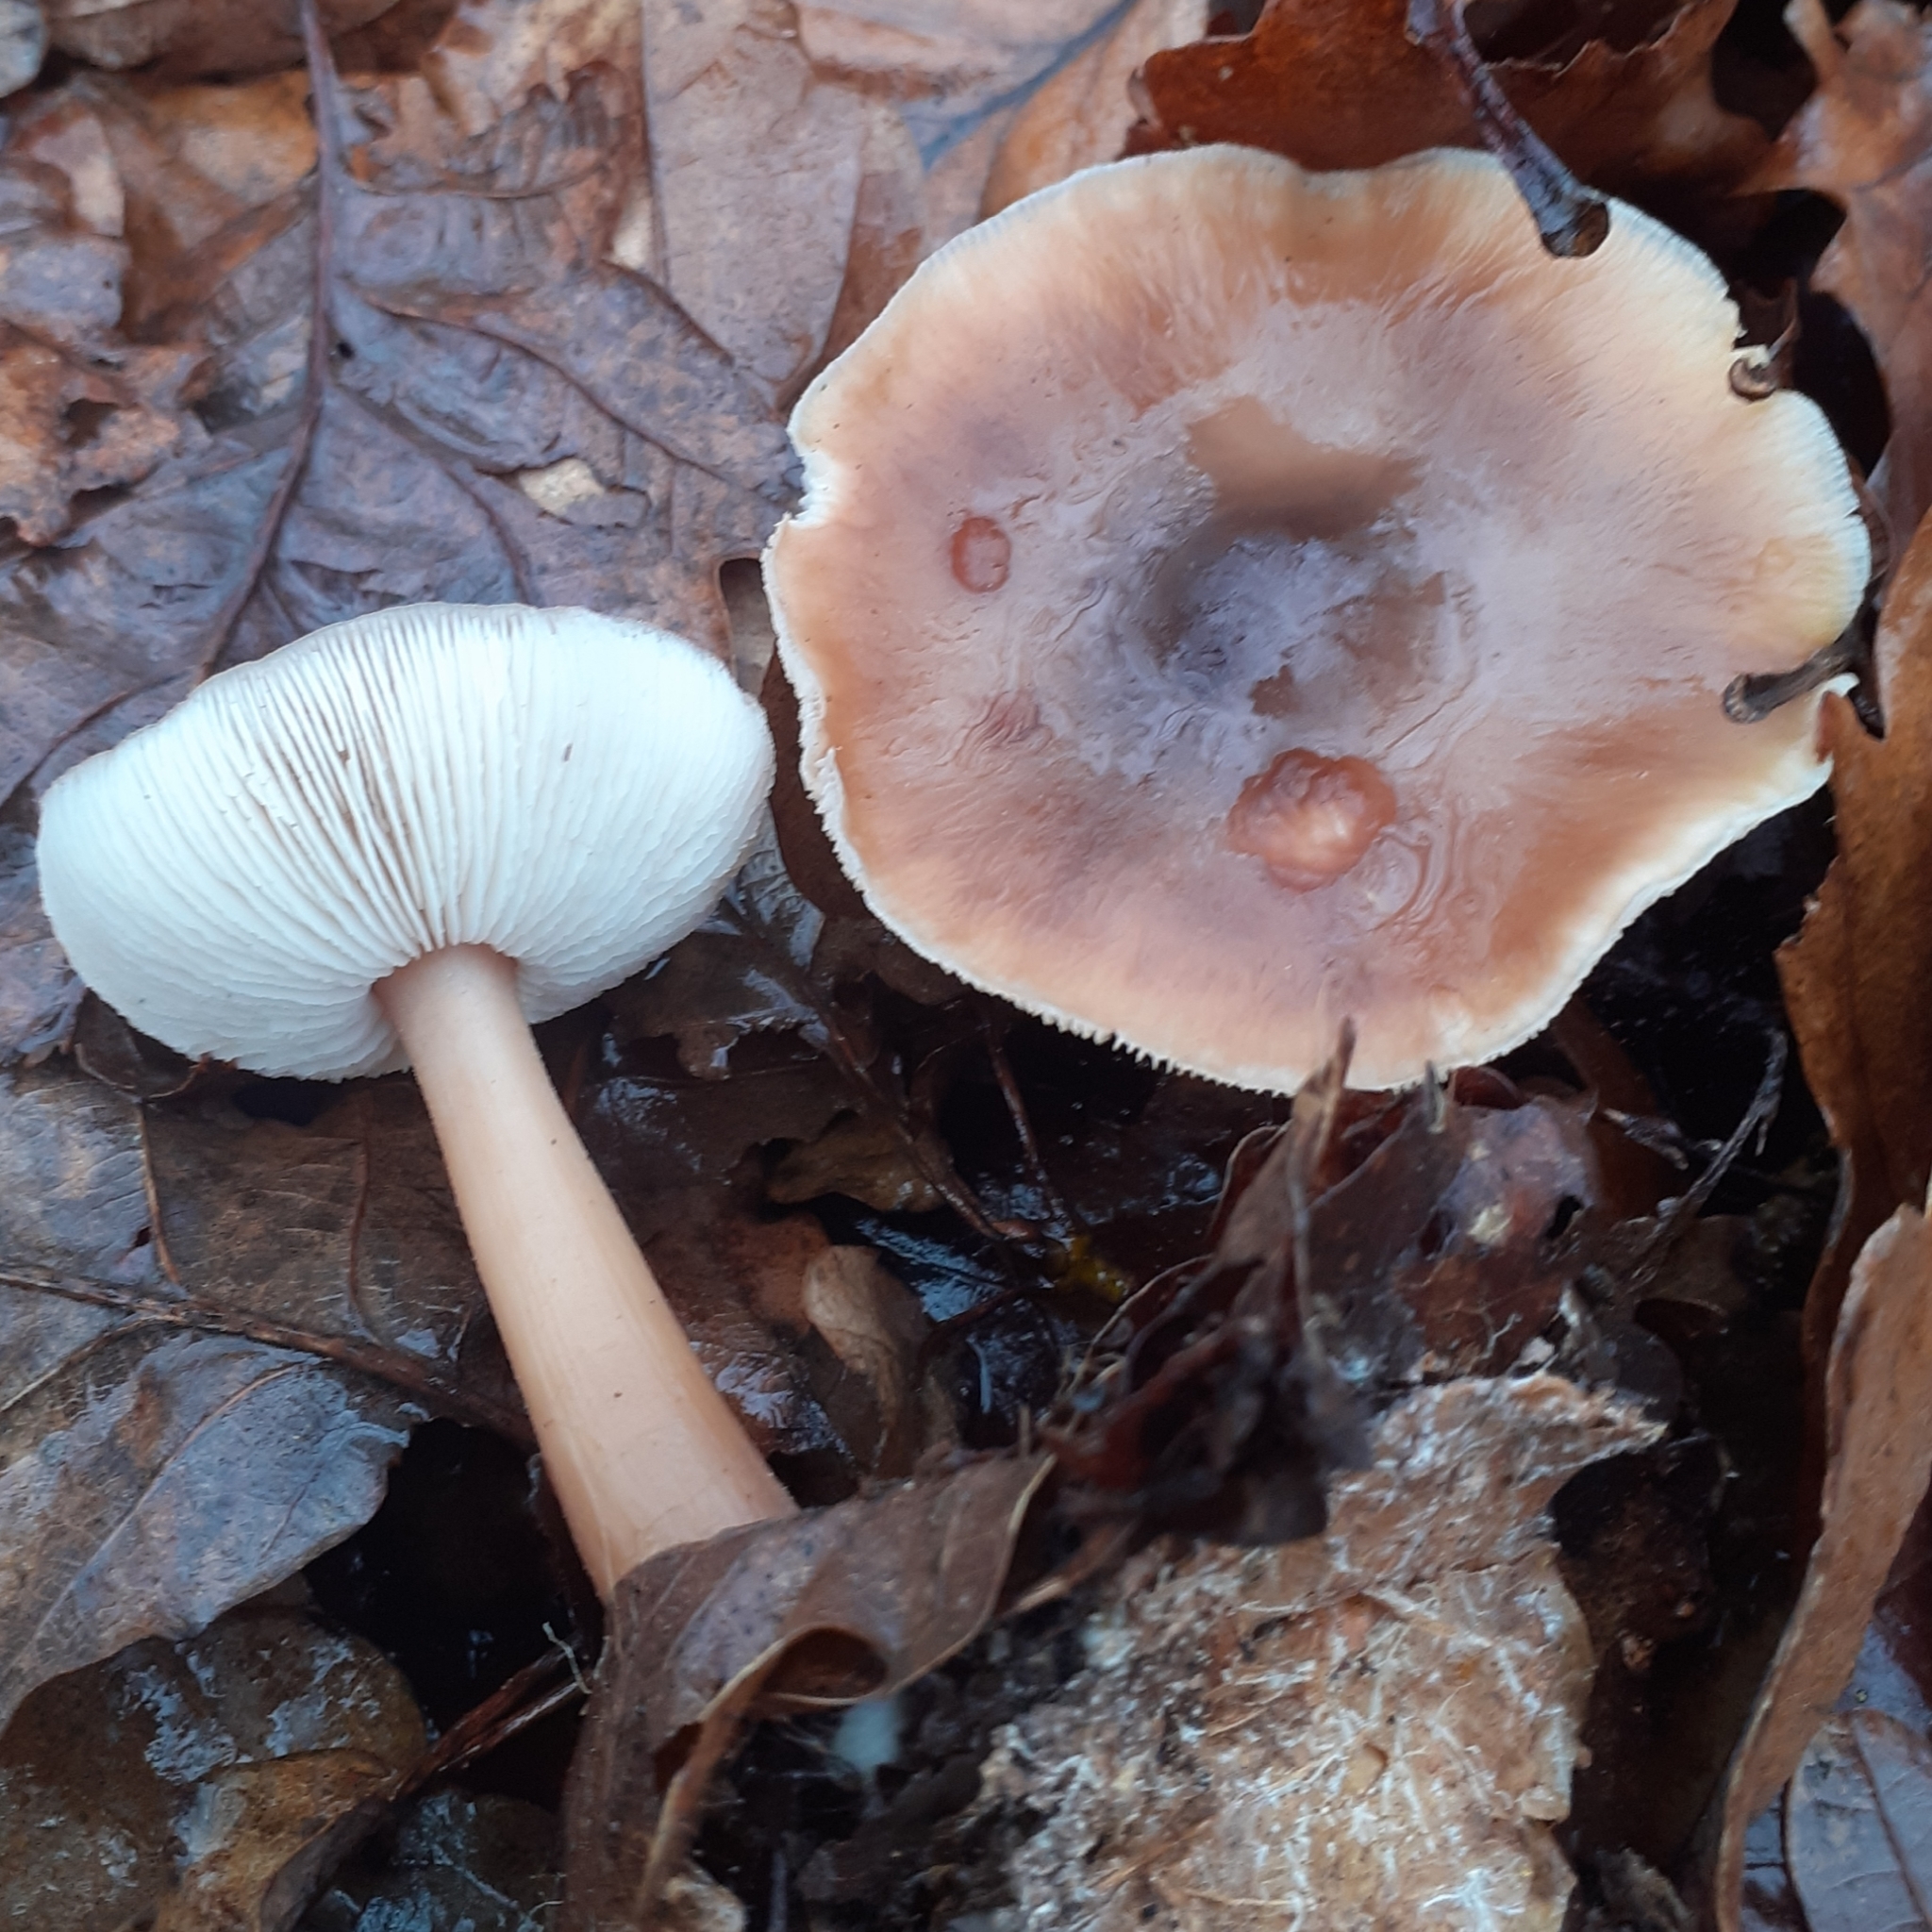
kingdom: Fungi
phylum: Basidiomycota
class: Agaricomycetes
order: Agaricales
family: Omphalotaceae
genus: Rhodocollybia
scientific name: Rhodocollybia butyracea
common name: Butter cap
